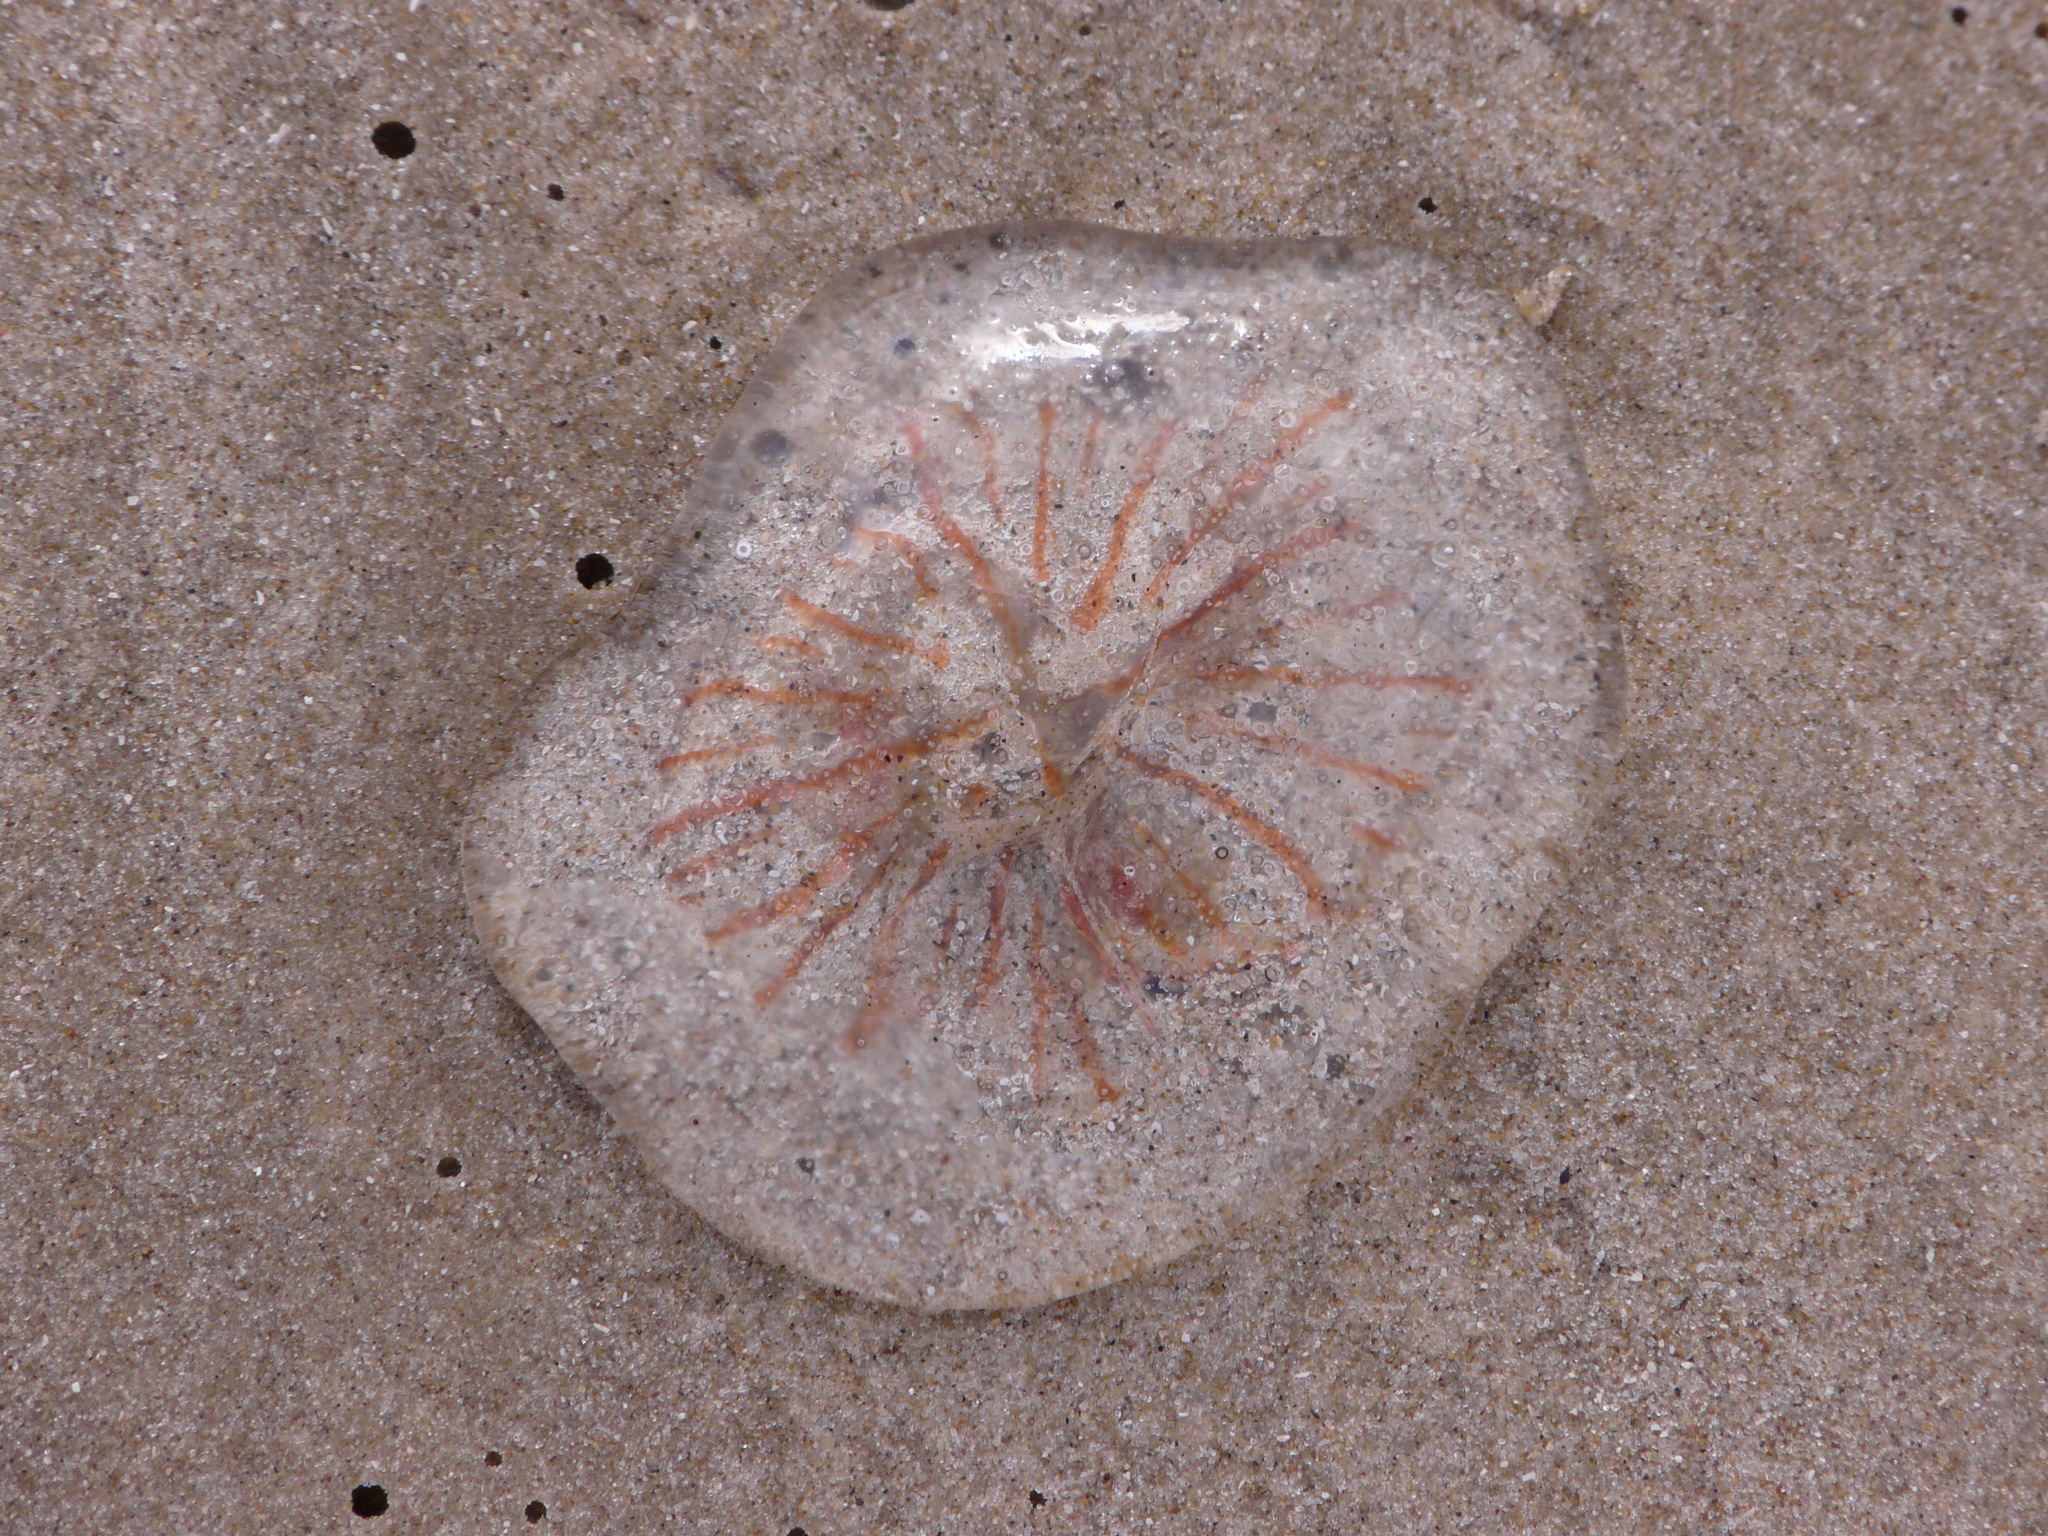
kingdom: Animalia
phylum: Cnidaria
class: Scyphozoa
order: Semaeostomeae
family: Pelagiidae
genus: Chrysaora
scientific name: Chrysaora lactea
